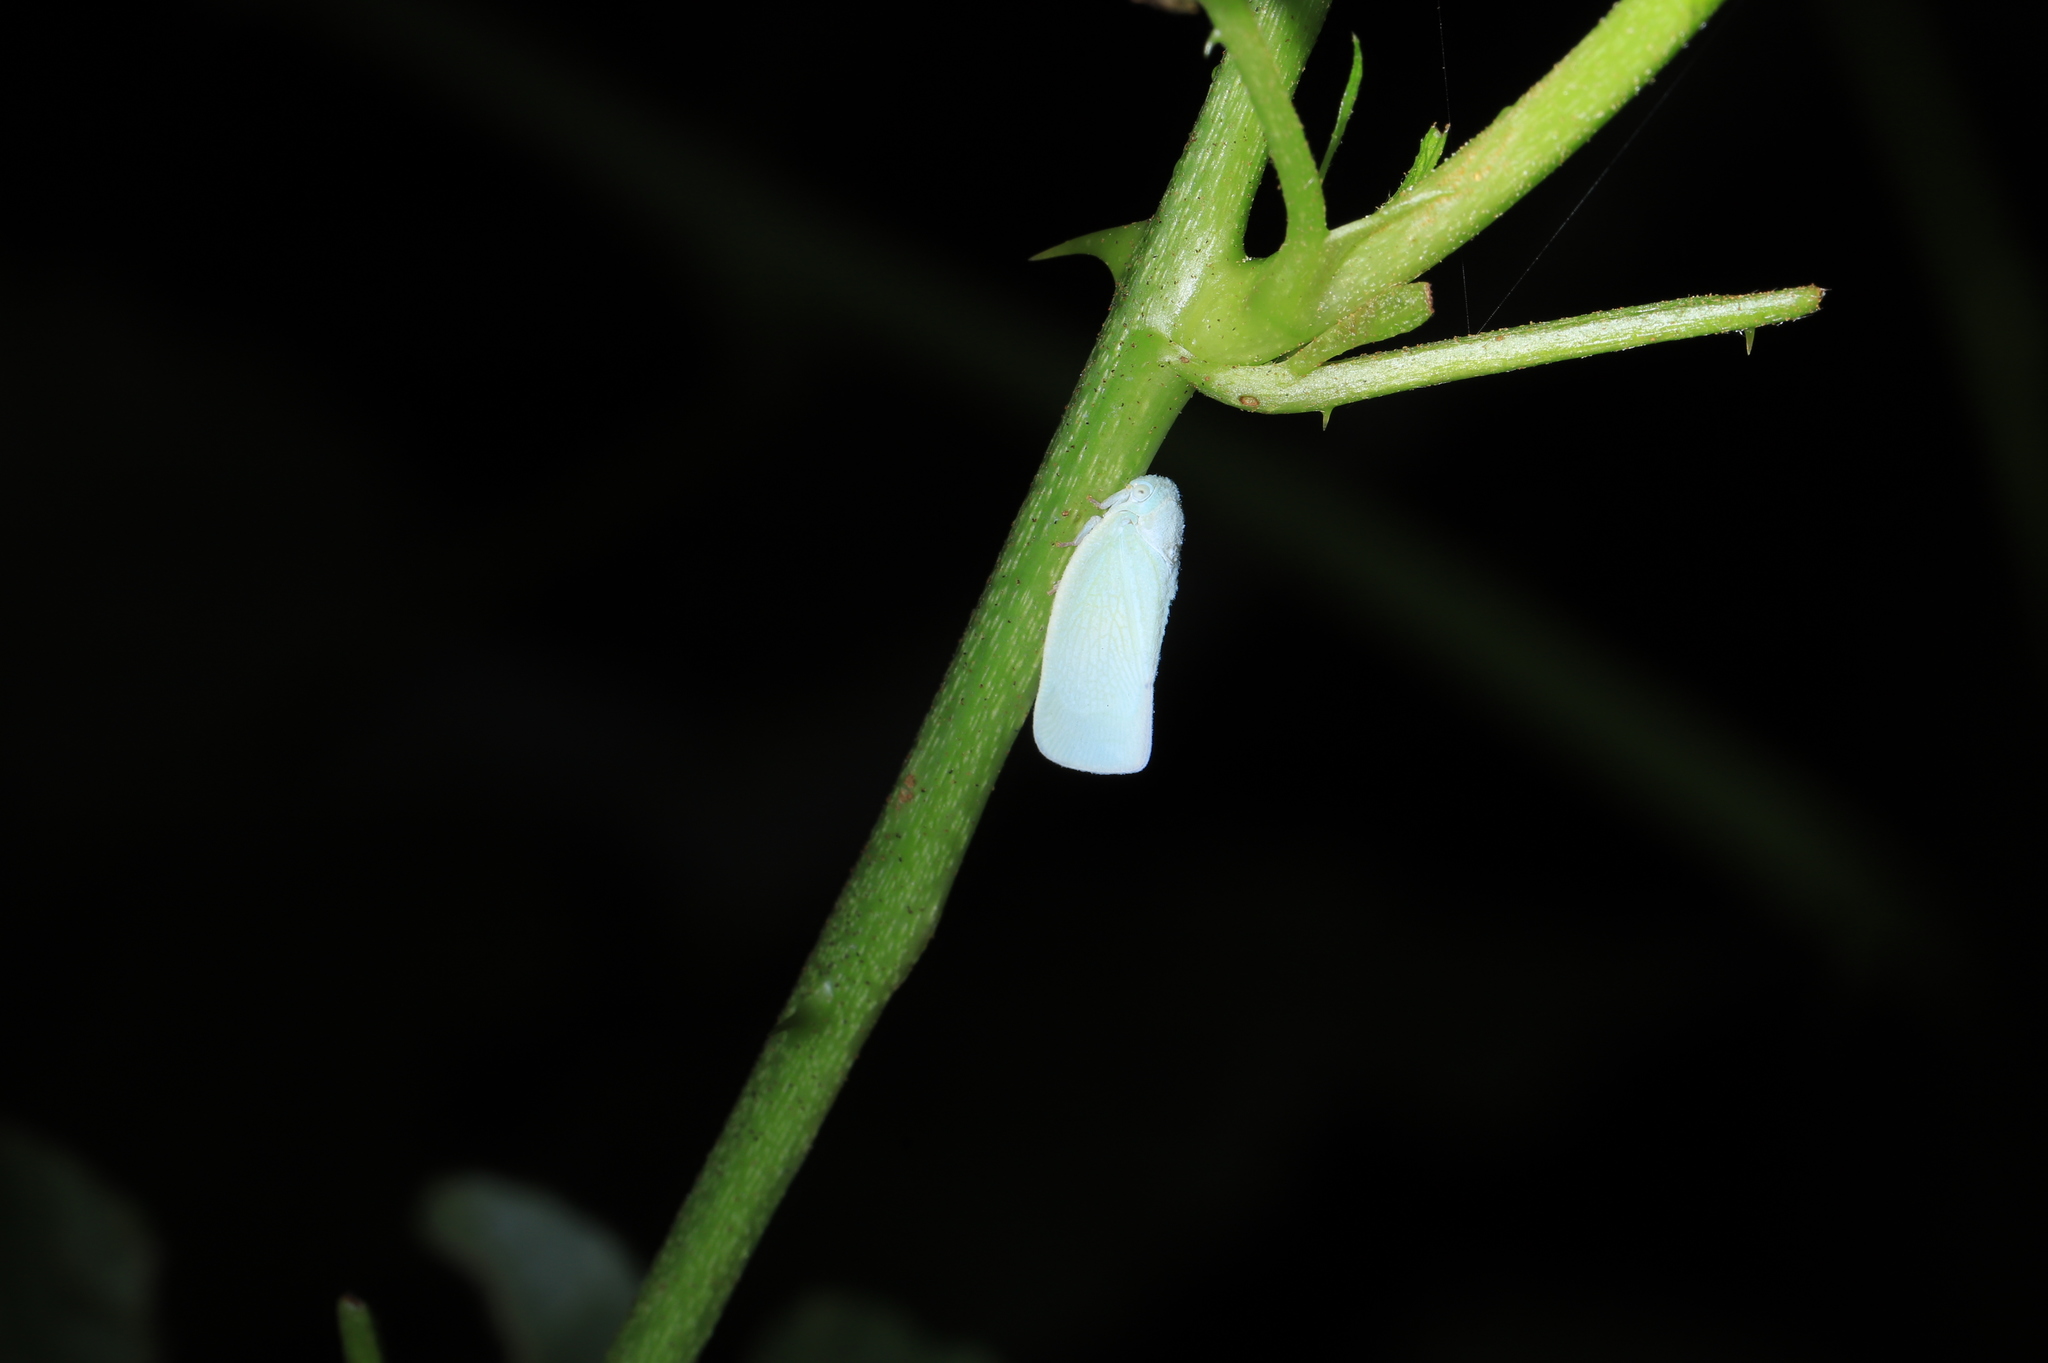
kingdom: Animalia
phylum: Arthropoda
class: Insecta
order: Hemiptera
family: Flatidae
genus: Flatormenis
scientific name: Flatormenis proxima
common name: Northern flatid planthopper
